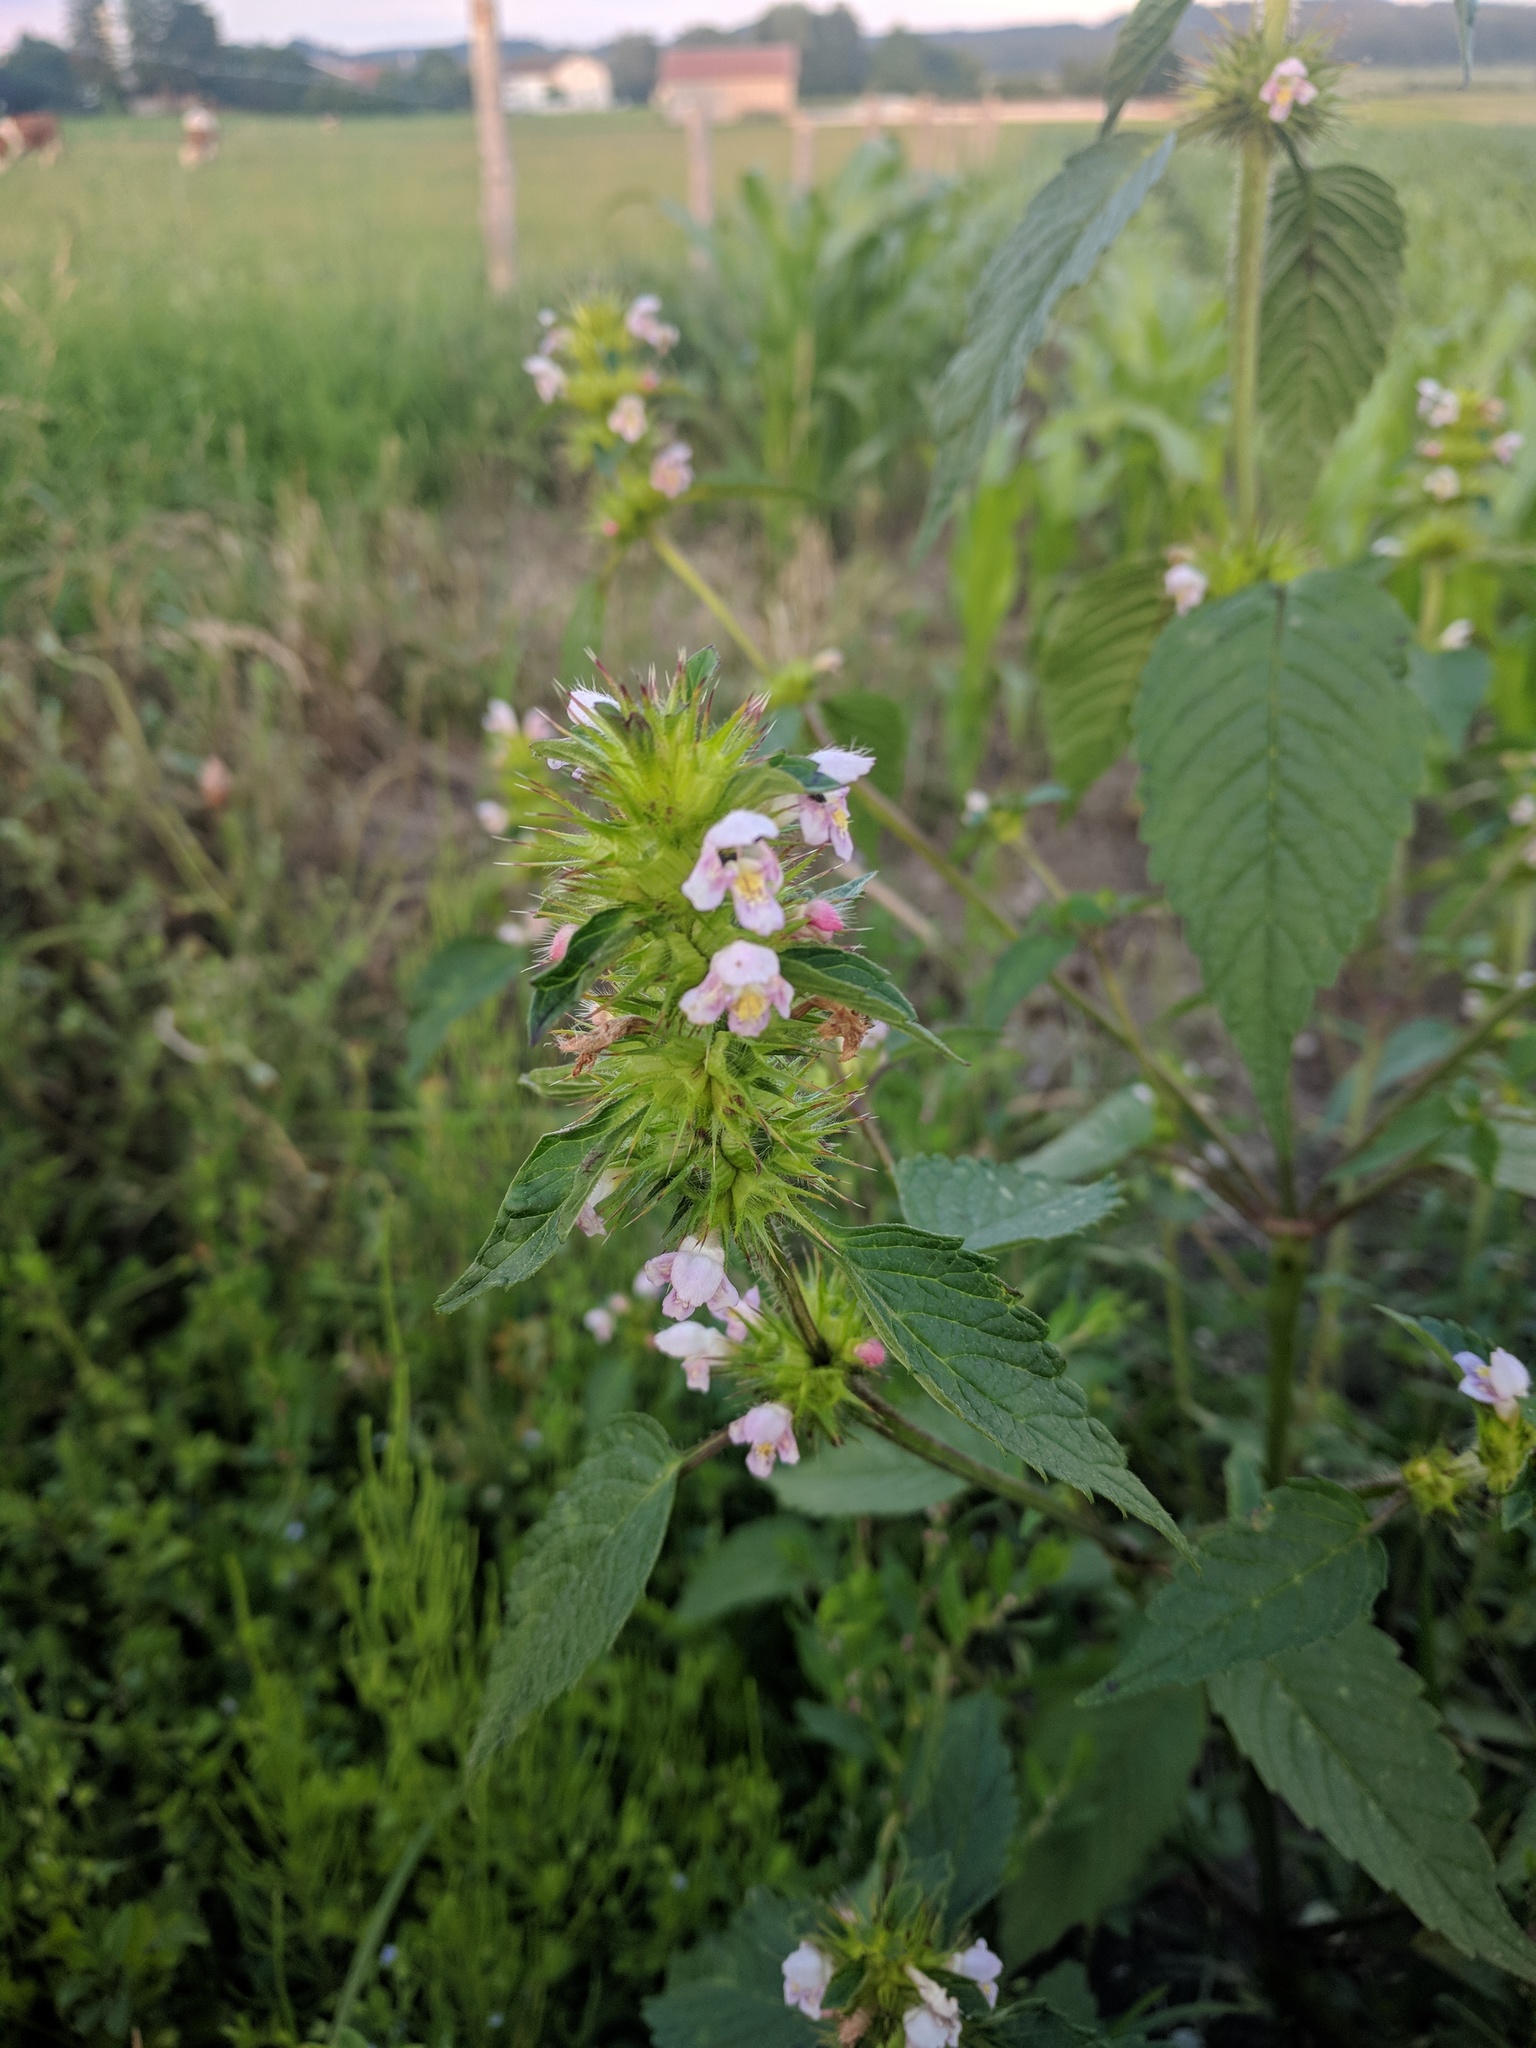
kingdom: Plantae
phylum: Tracheophyta
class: Magnoliopsida
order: Lamiales
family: Lamiaceae
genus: Galeopsis
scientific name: Galeopsis tetrahit
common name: Common hemp-nettle
